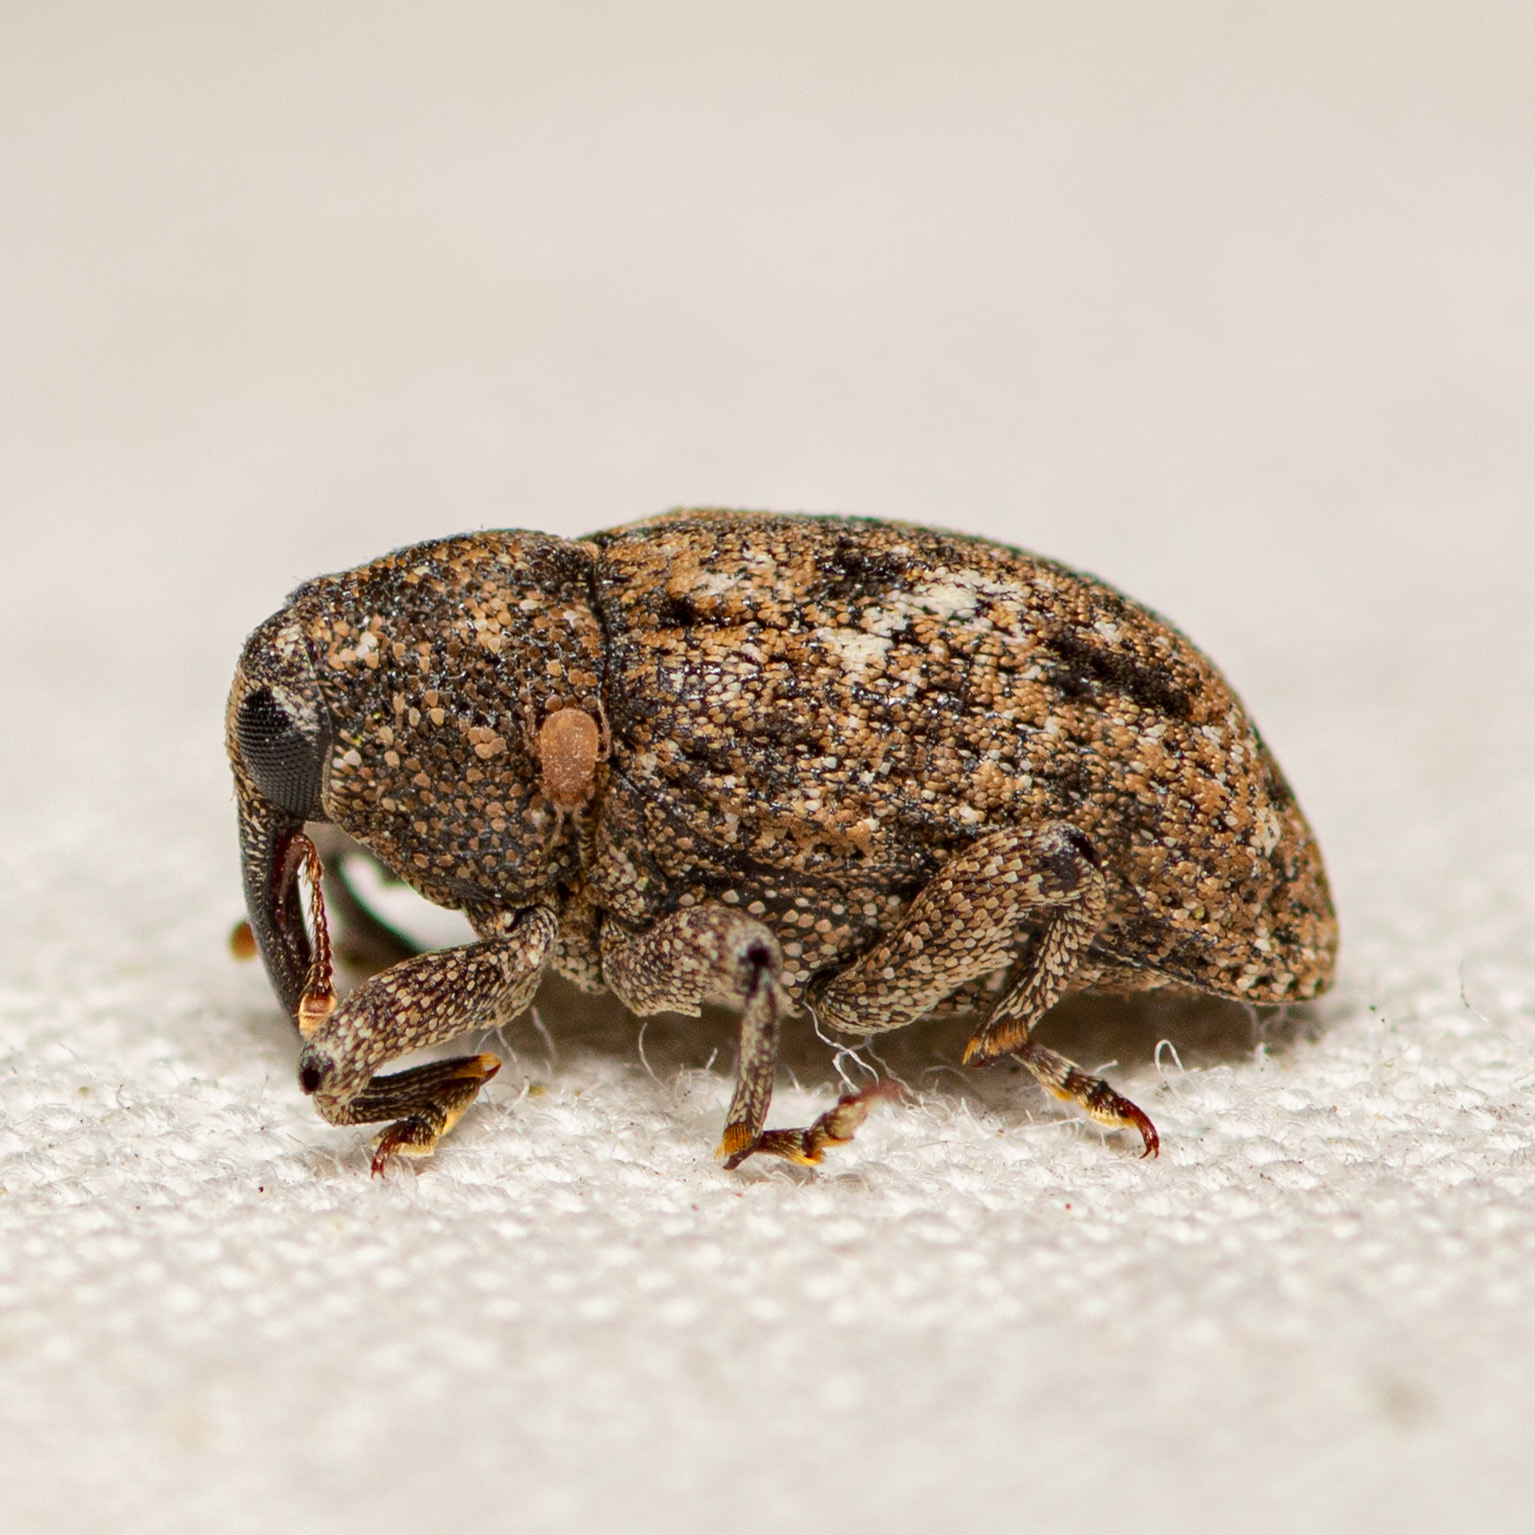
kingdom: Animalia
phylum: Arthropoda
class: Insecta
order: Coleoptera
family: Curculionidae
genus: Cophes
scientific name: Cophes oblongus
